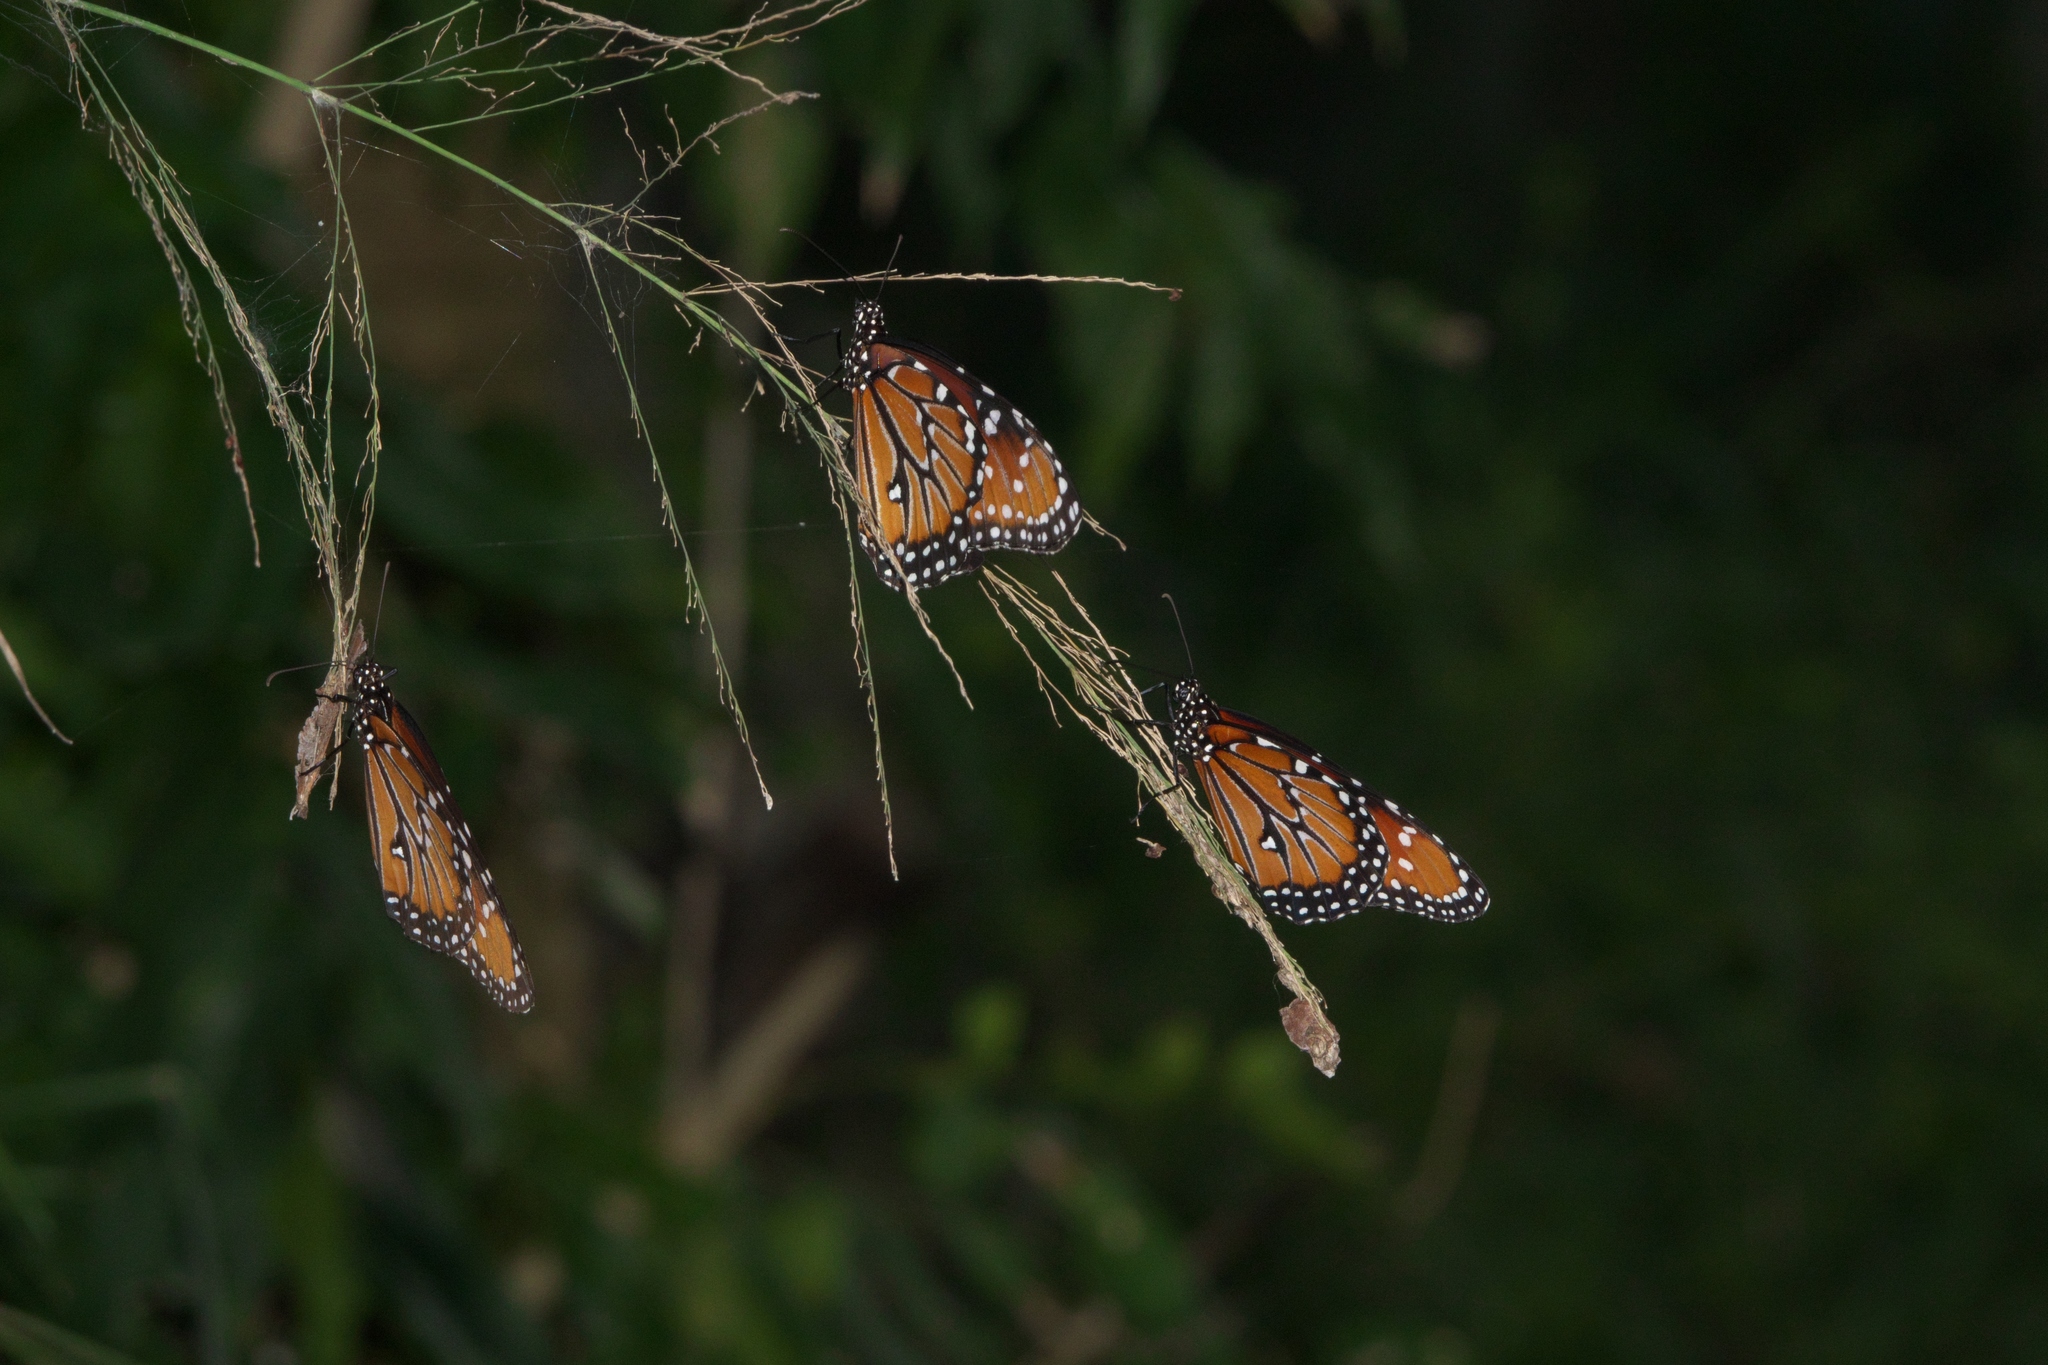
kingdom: Animalia
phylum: Arthropoda
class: Insecta
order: Lepidoptera
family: Nymphalidae
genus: Danaus
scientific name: Danaus gilippus
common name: Queen
